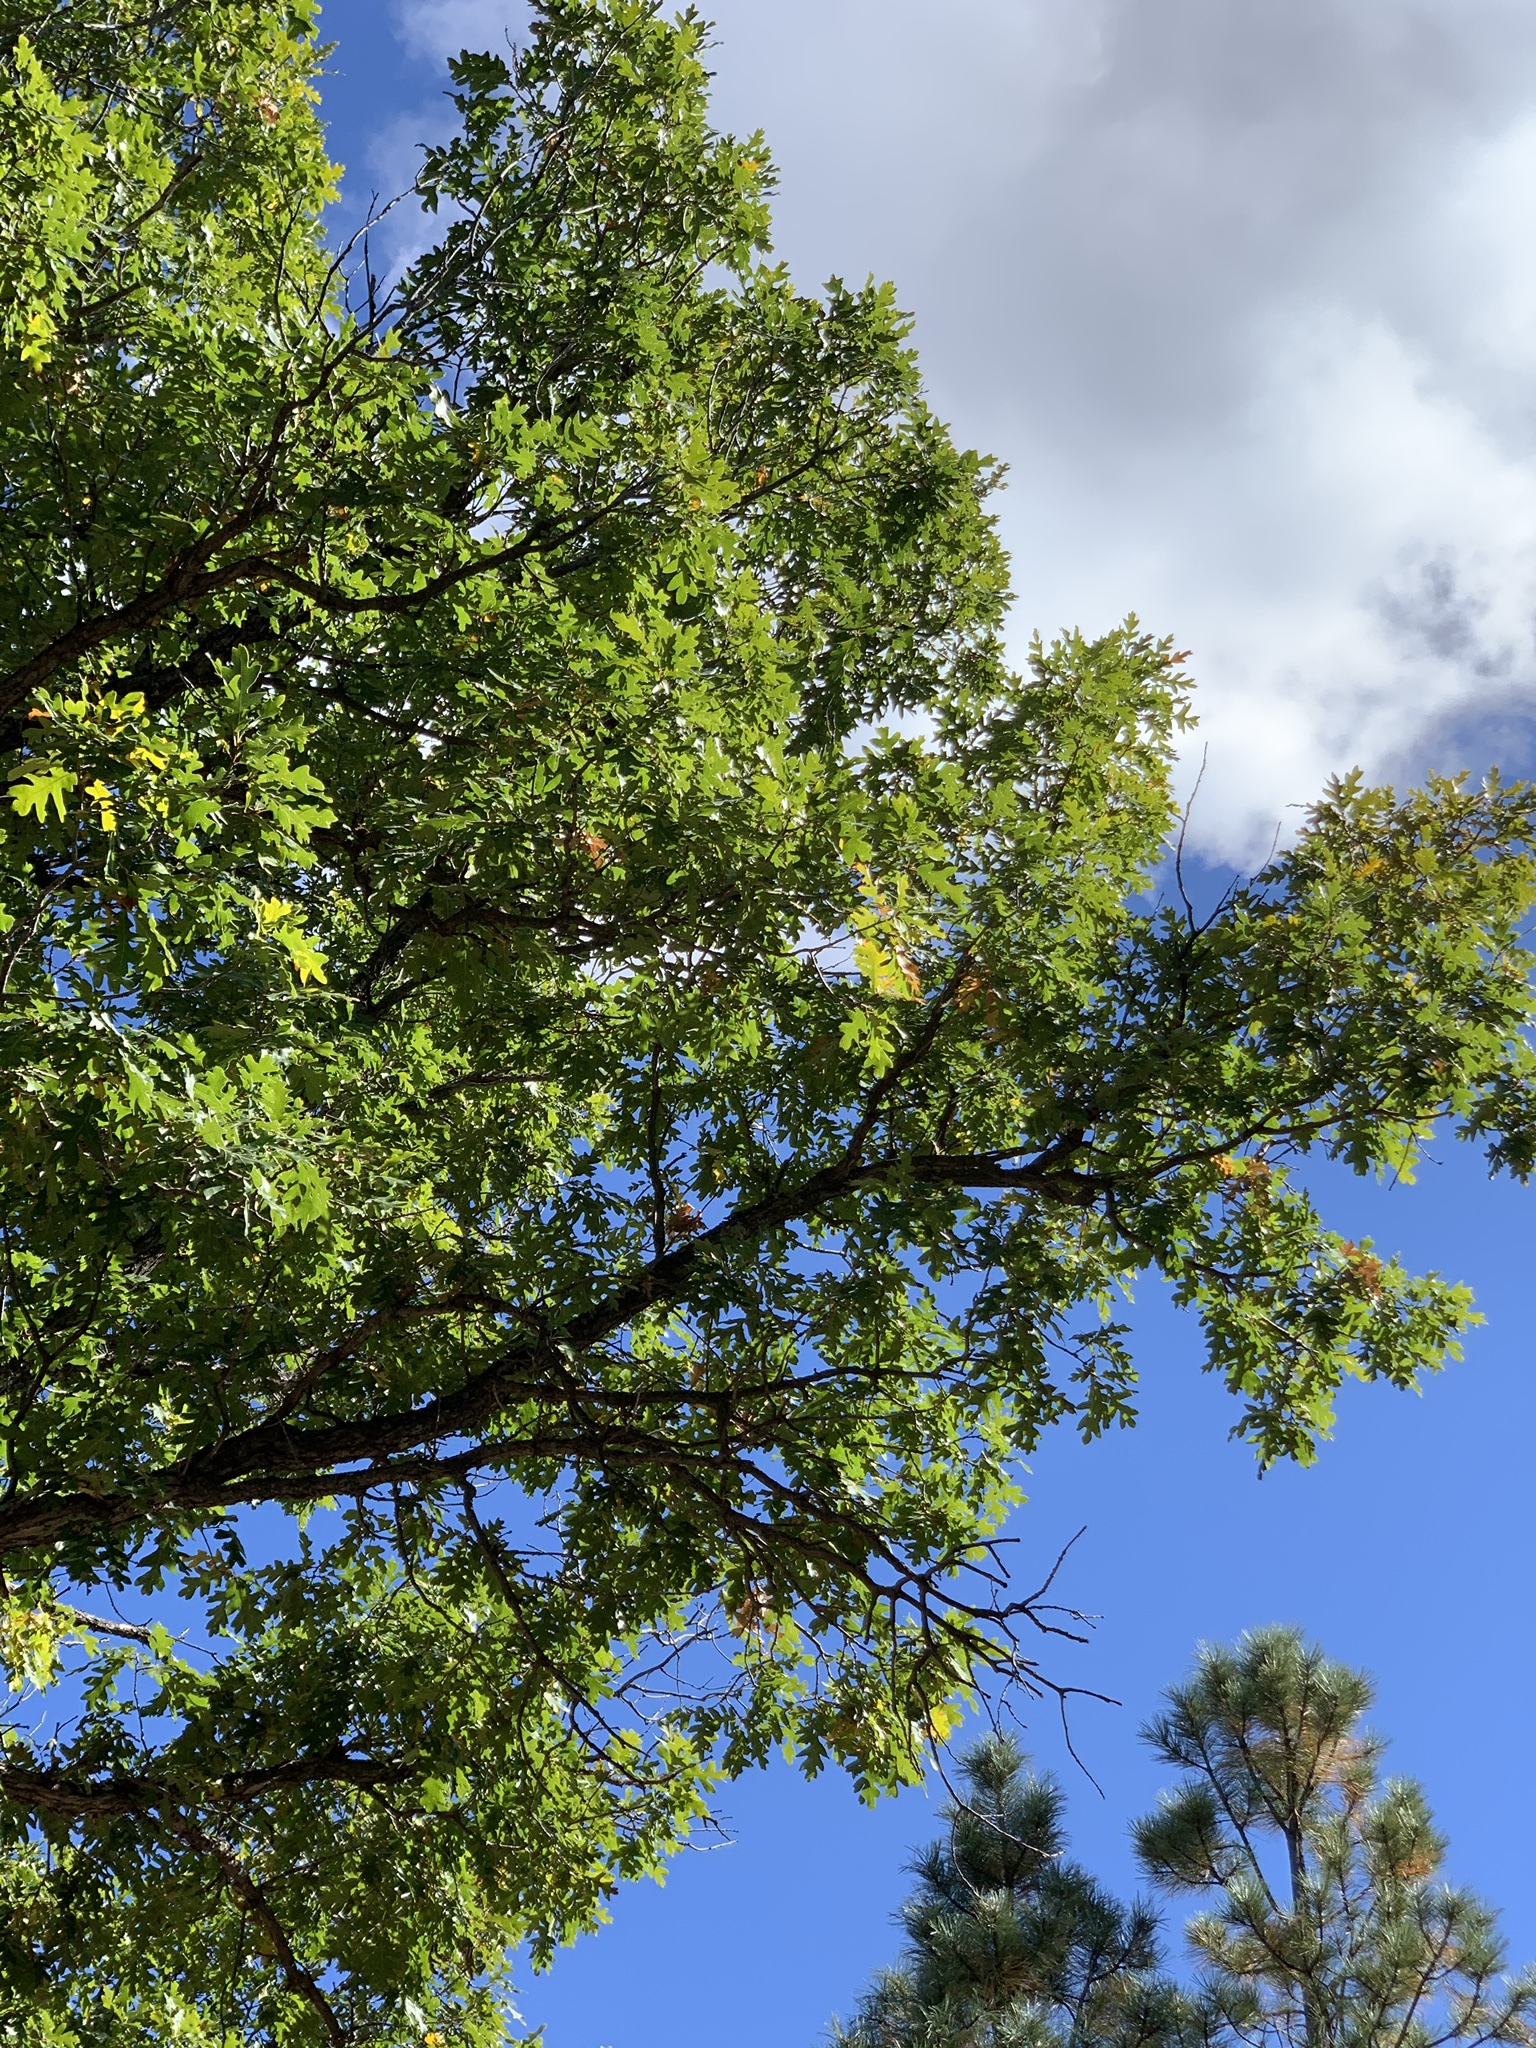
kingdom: Plantae
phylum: Tracheophyta
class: Magnoliopsida
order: Fagales
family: Fagaceae
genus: Quercus
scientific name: Quercus gambelii
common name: Gambel oak
